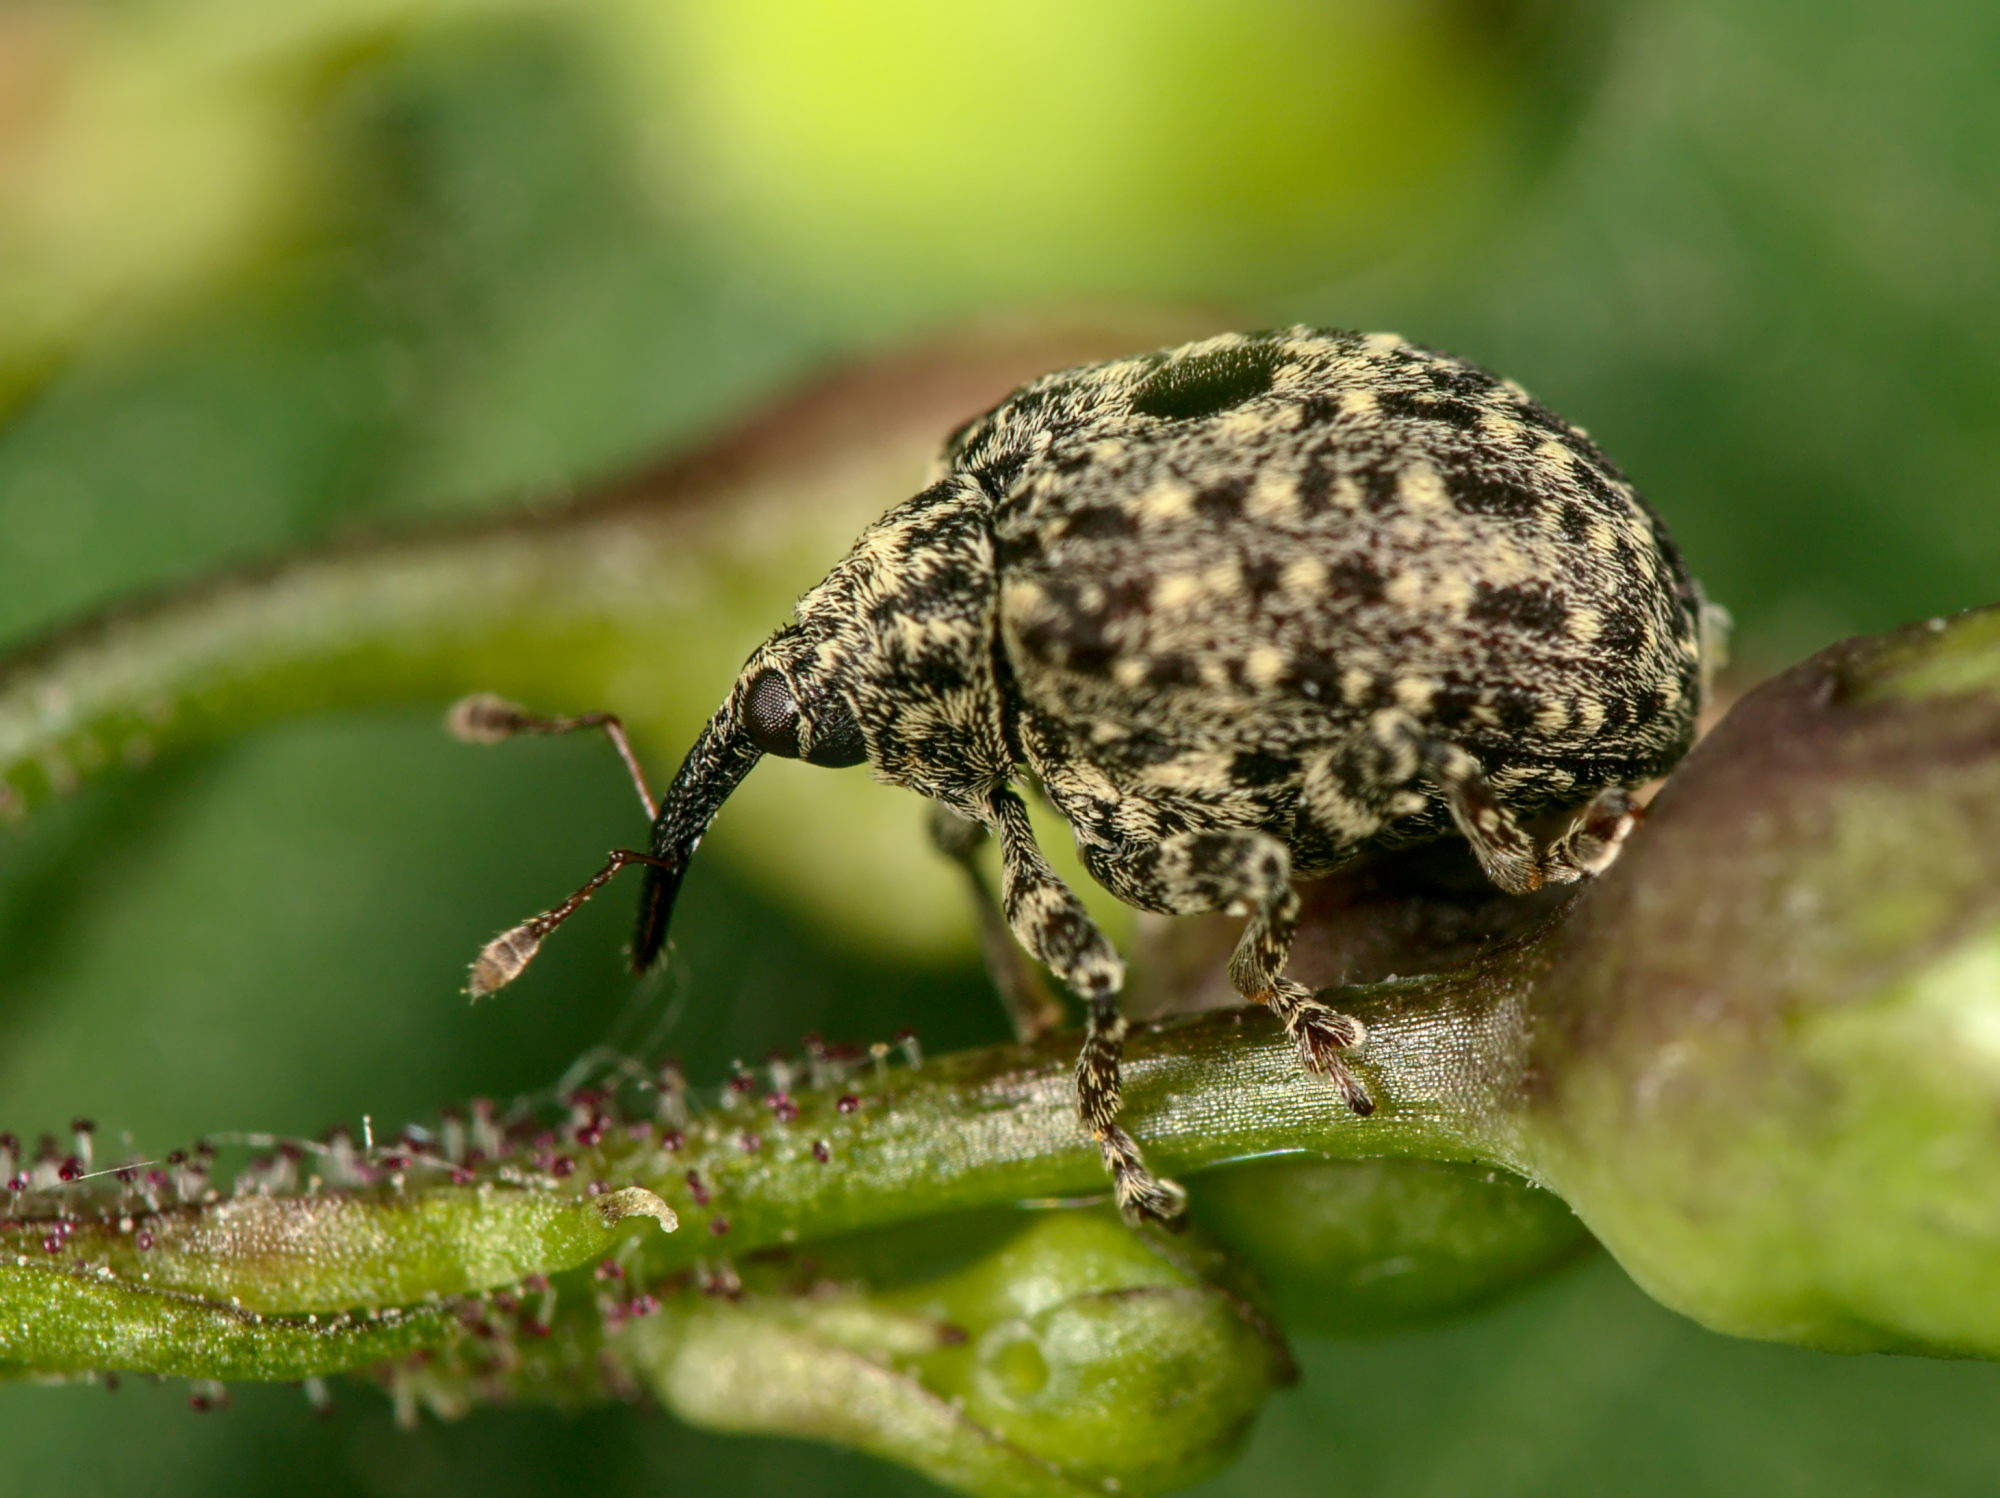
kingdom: Animalia
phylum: Arthropoda
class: Insecta
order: Coleoptera
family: Curculionidae
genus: Cionus
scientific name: Cionus hortulanus
